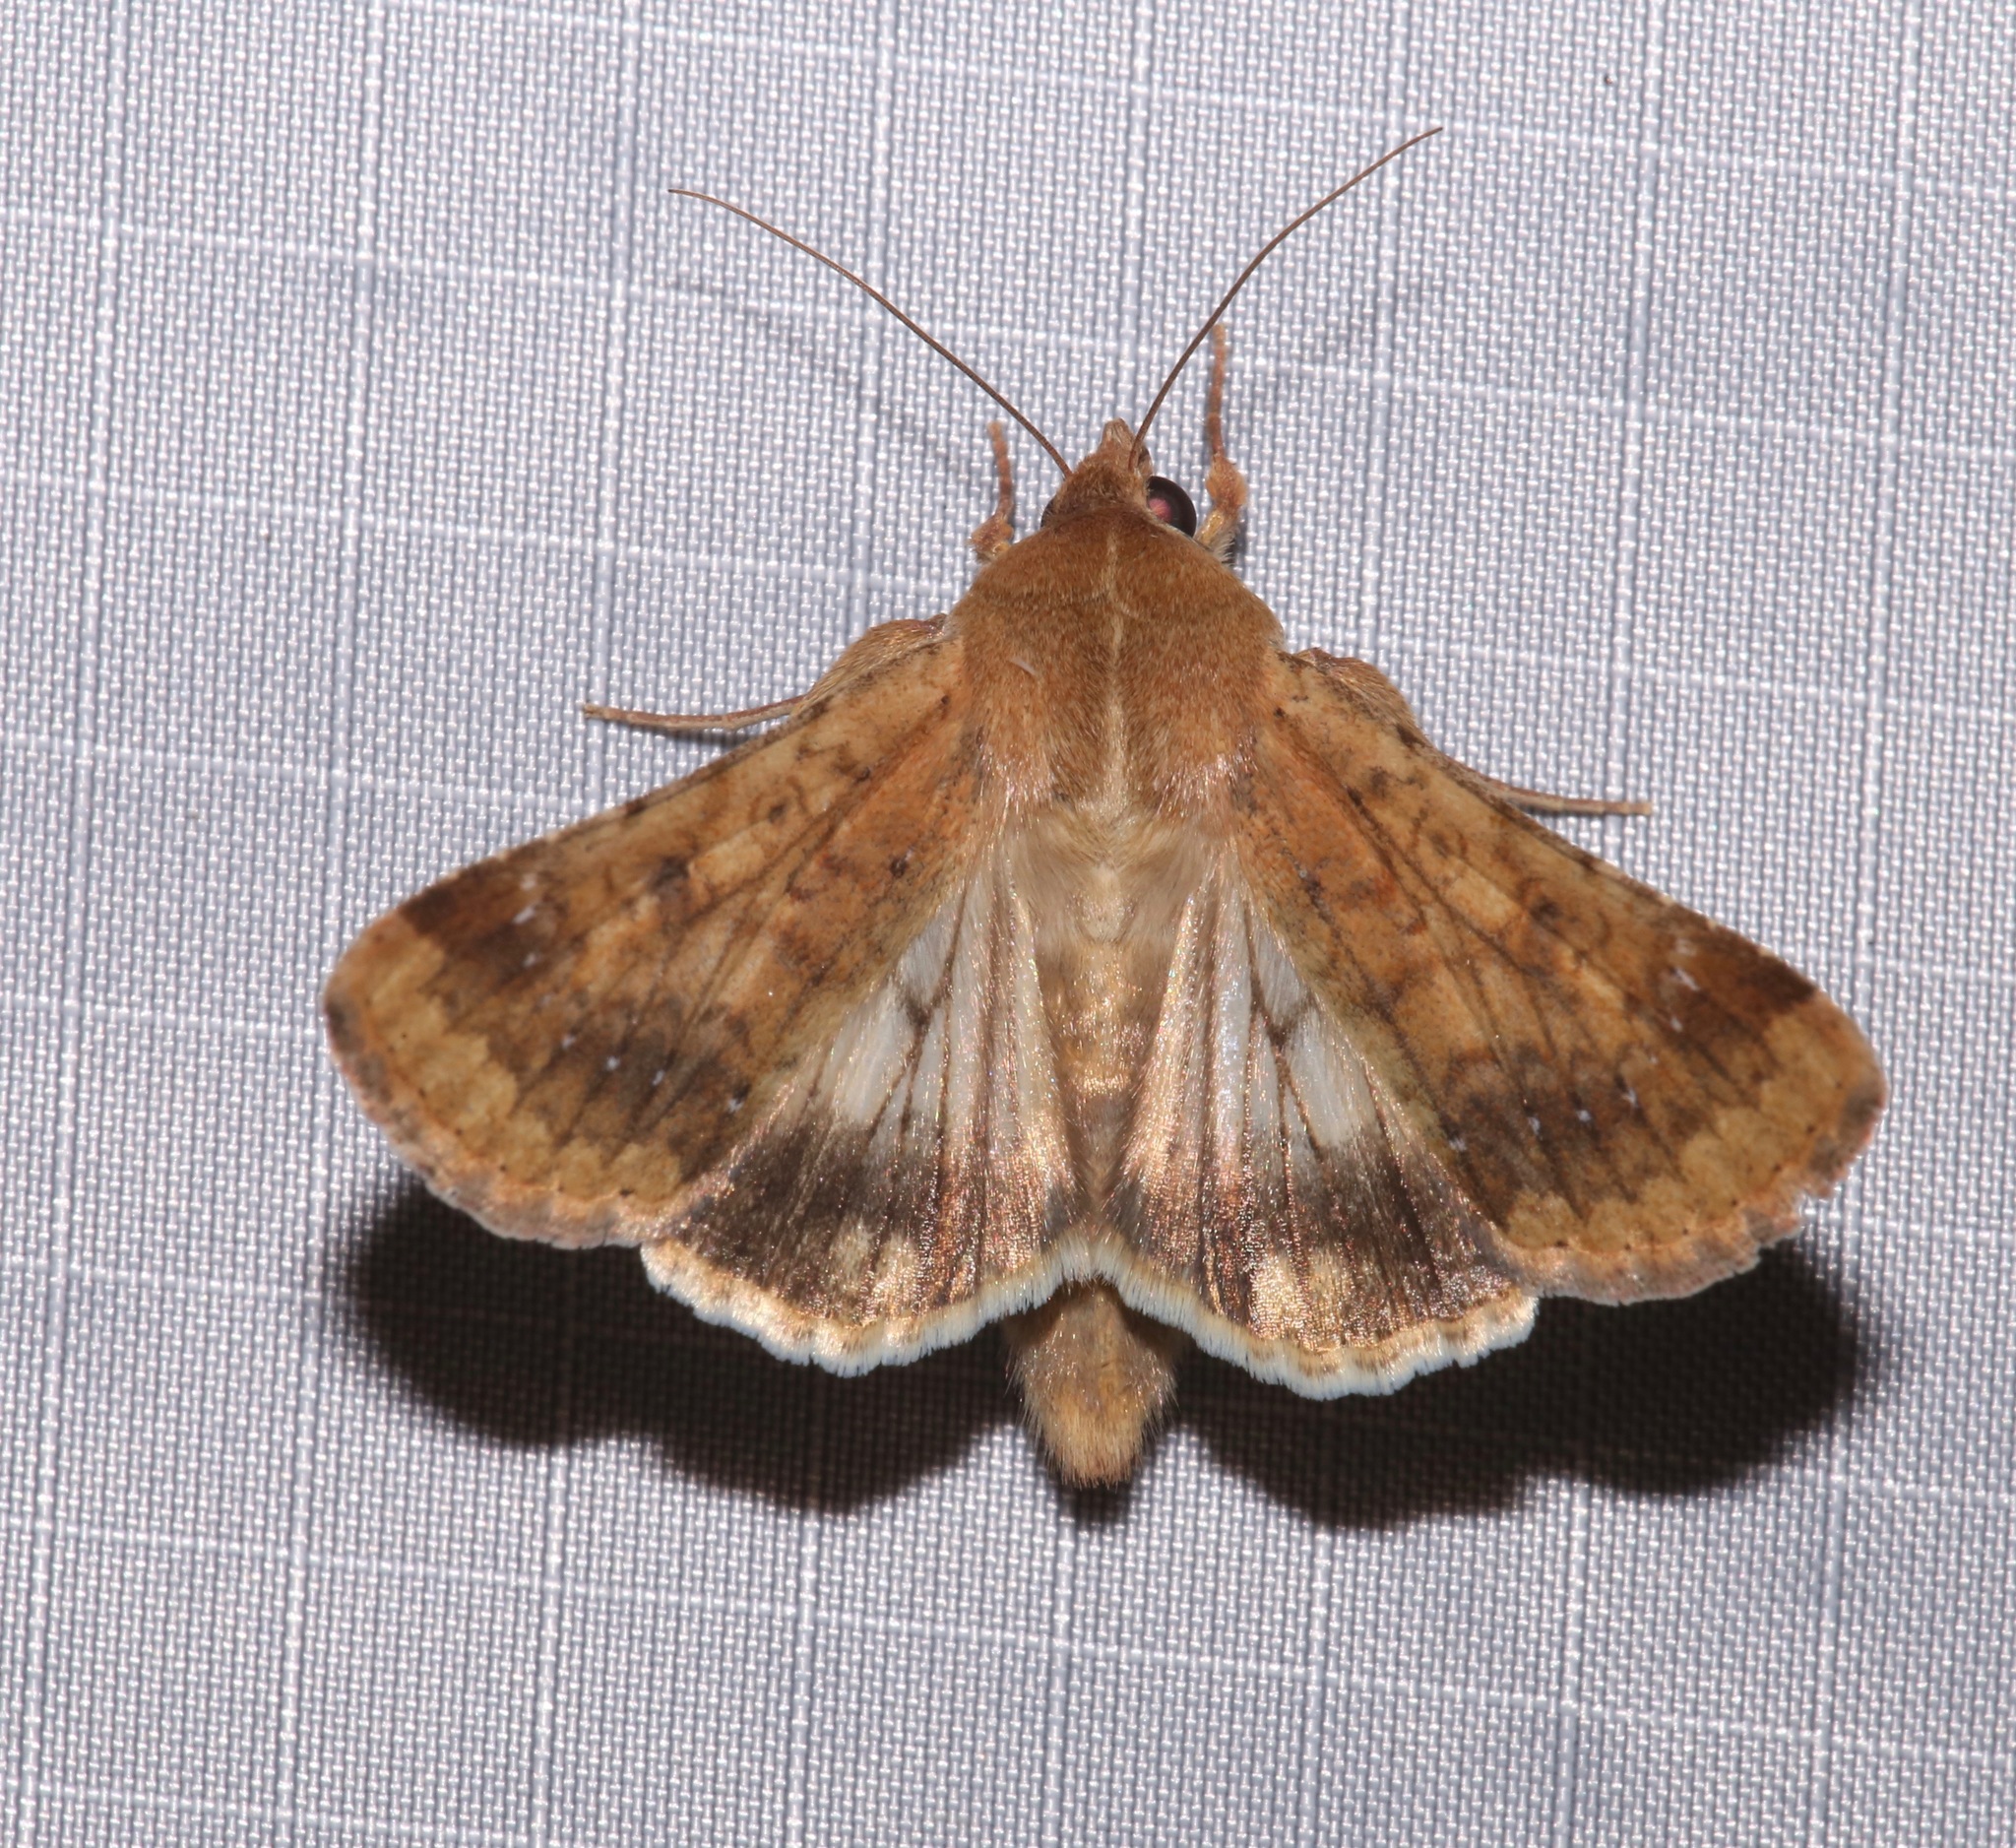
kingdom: Animalia
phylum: Arthropoda
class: Insecta
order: Lepidoptera
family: Noctuidae
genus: Helicoverpa
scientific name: Helicoverpa zea
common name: Bollworm
